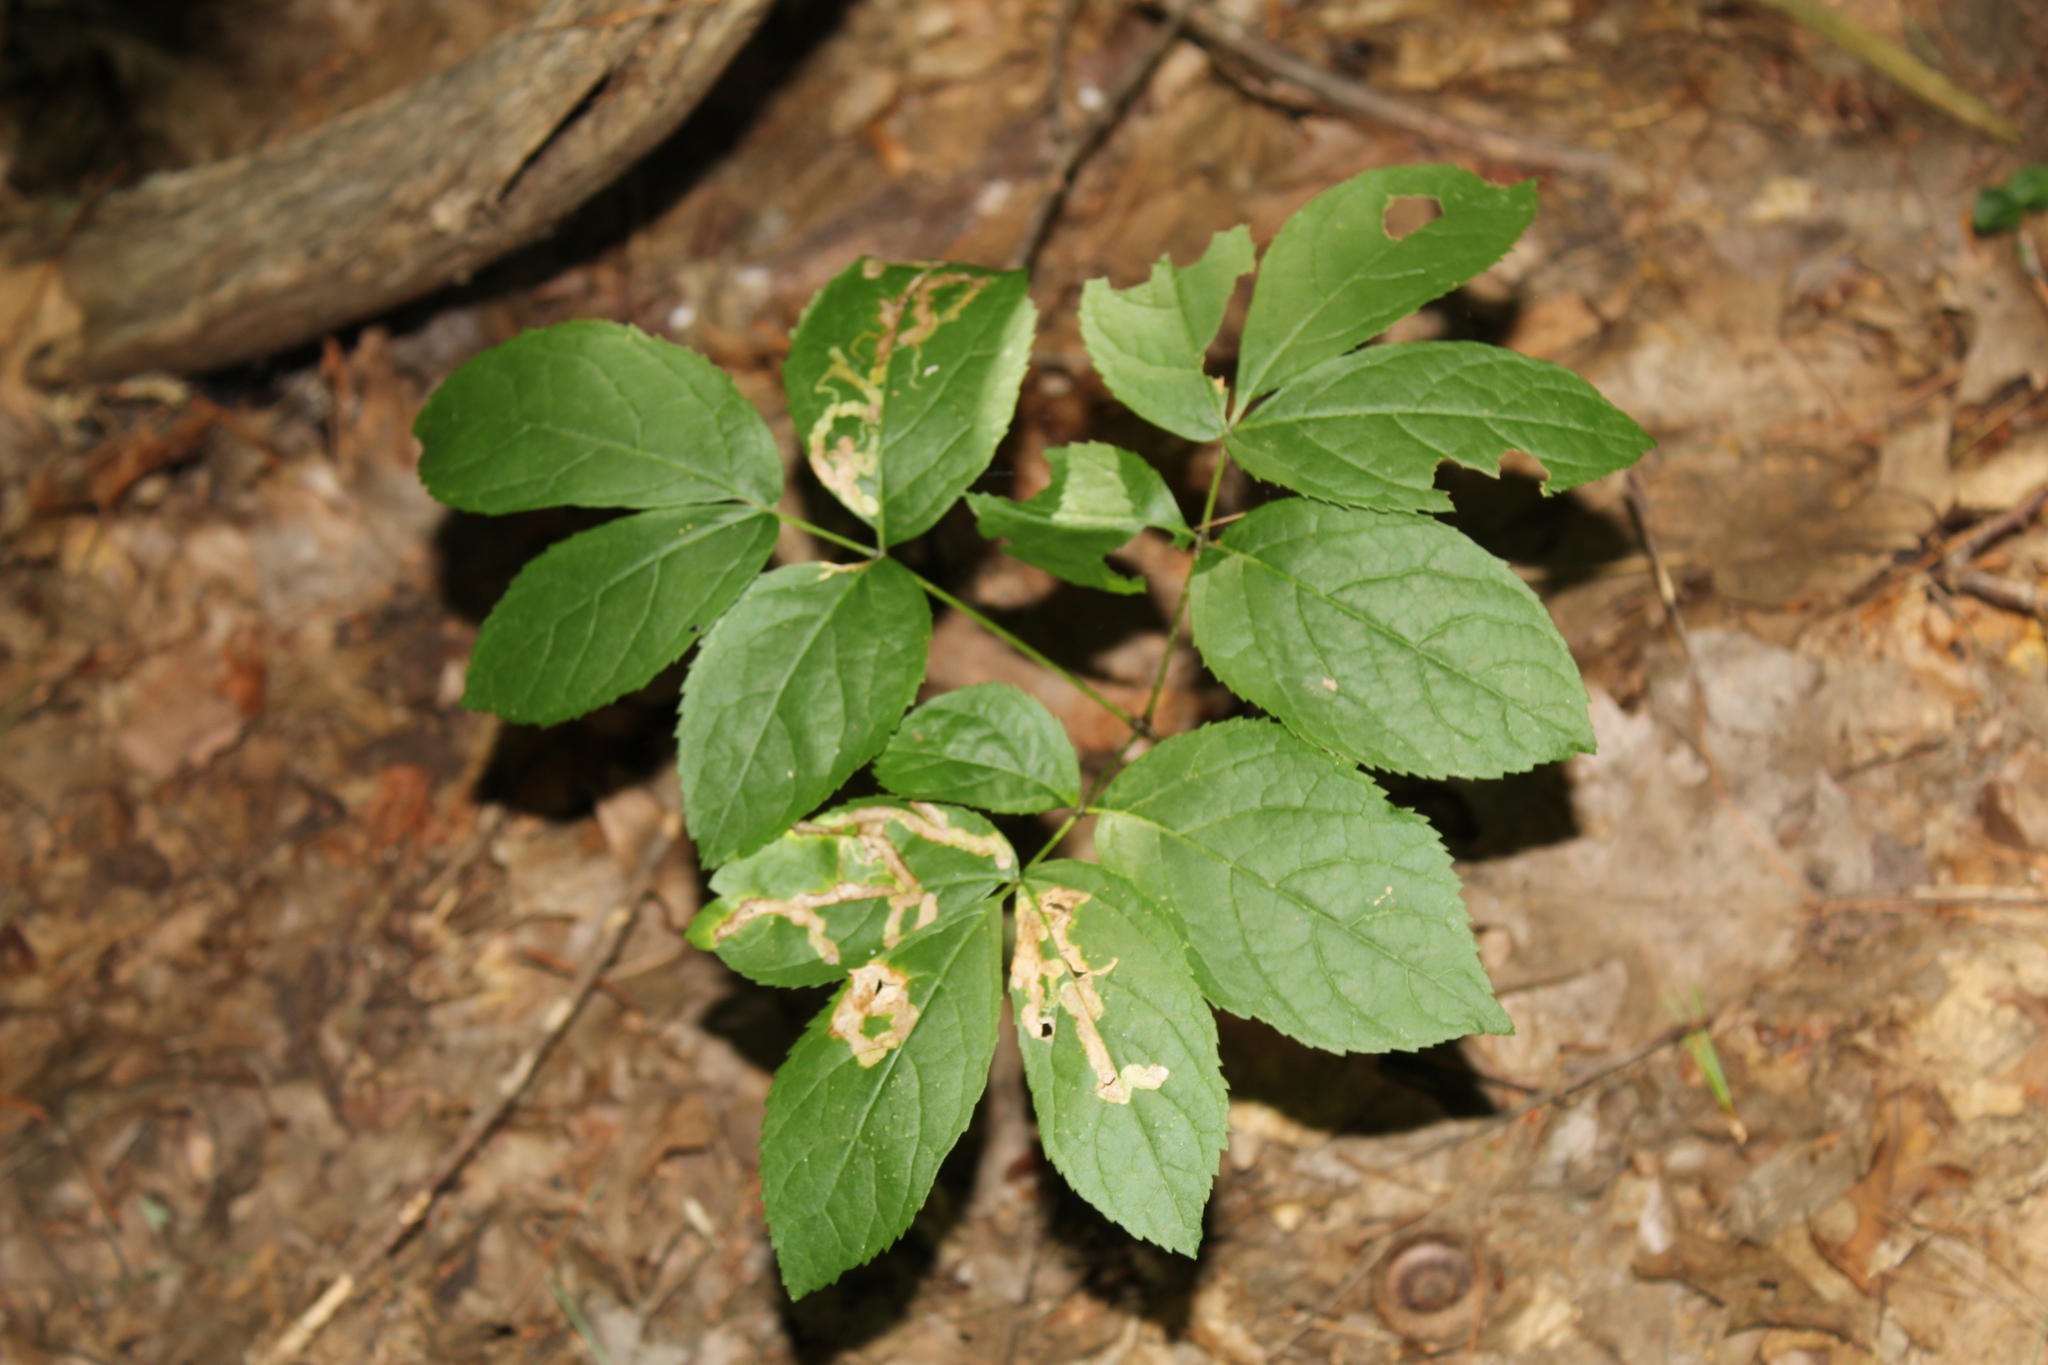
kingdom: Plantae
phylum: Tracheophyta
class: Magnoliopsida
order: Apiales
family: Araliaceae
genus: Aralia
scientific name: Aralia nudicaulis
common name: Wild sarsaparilla
